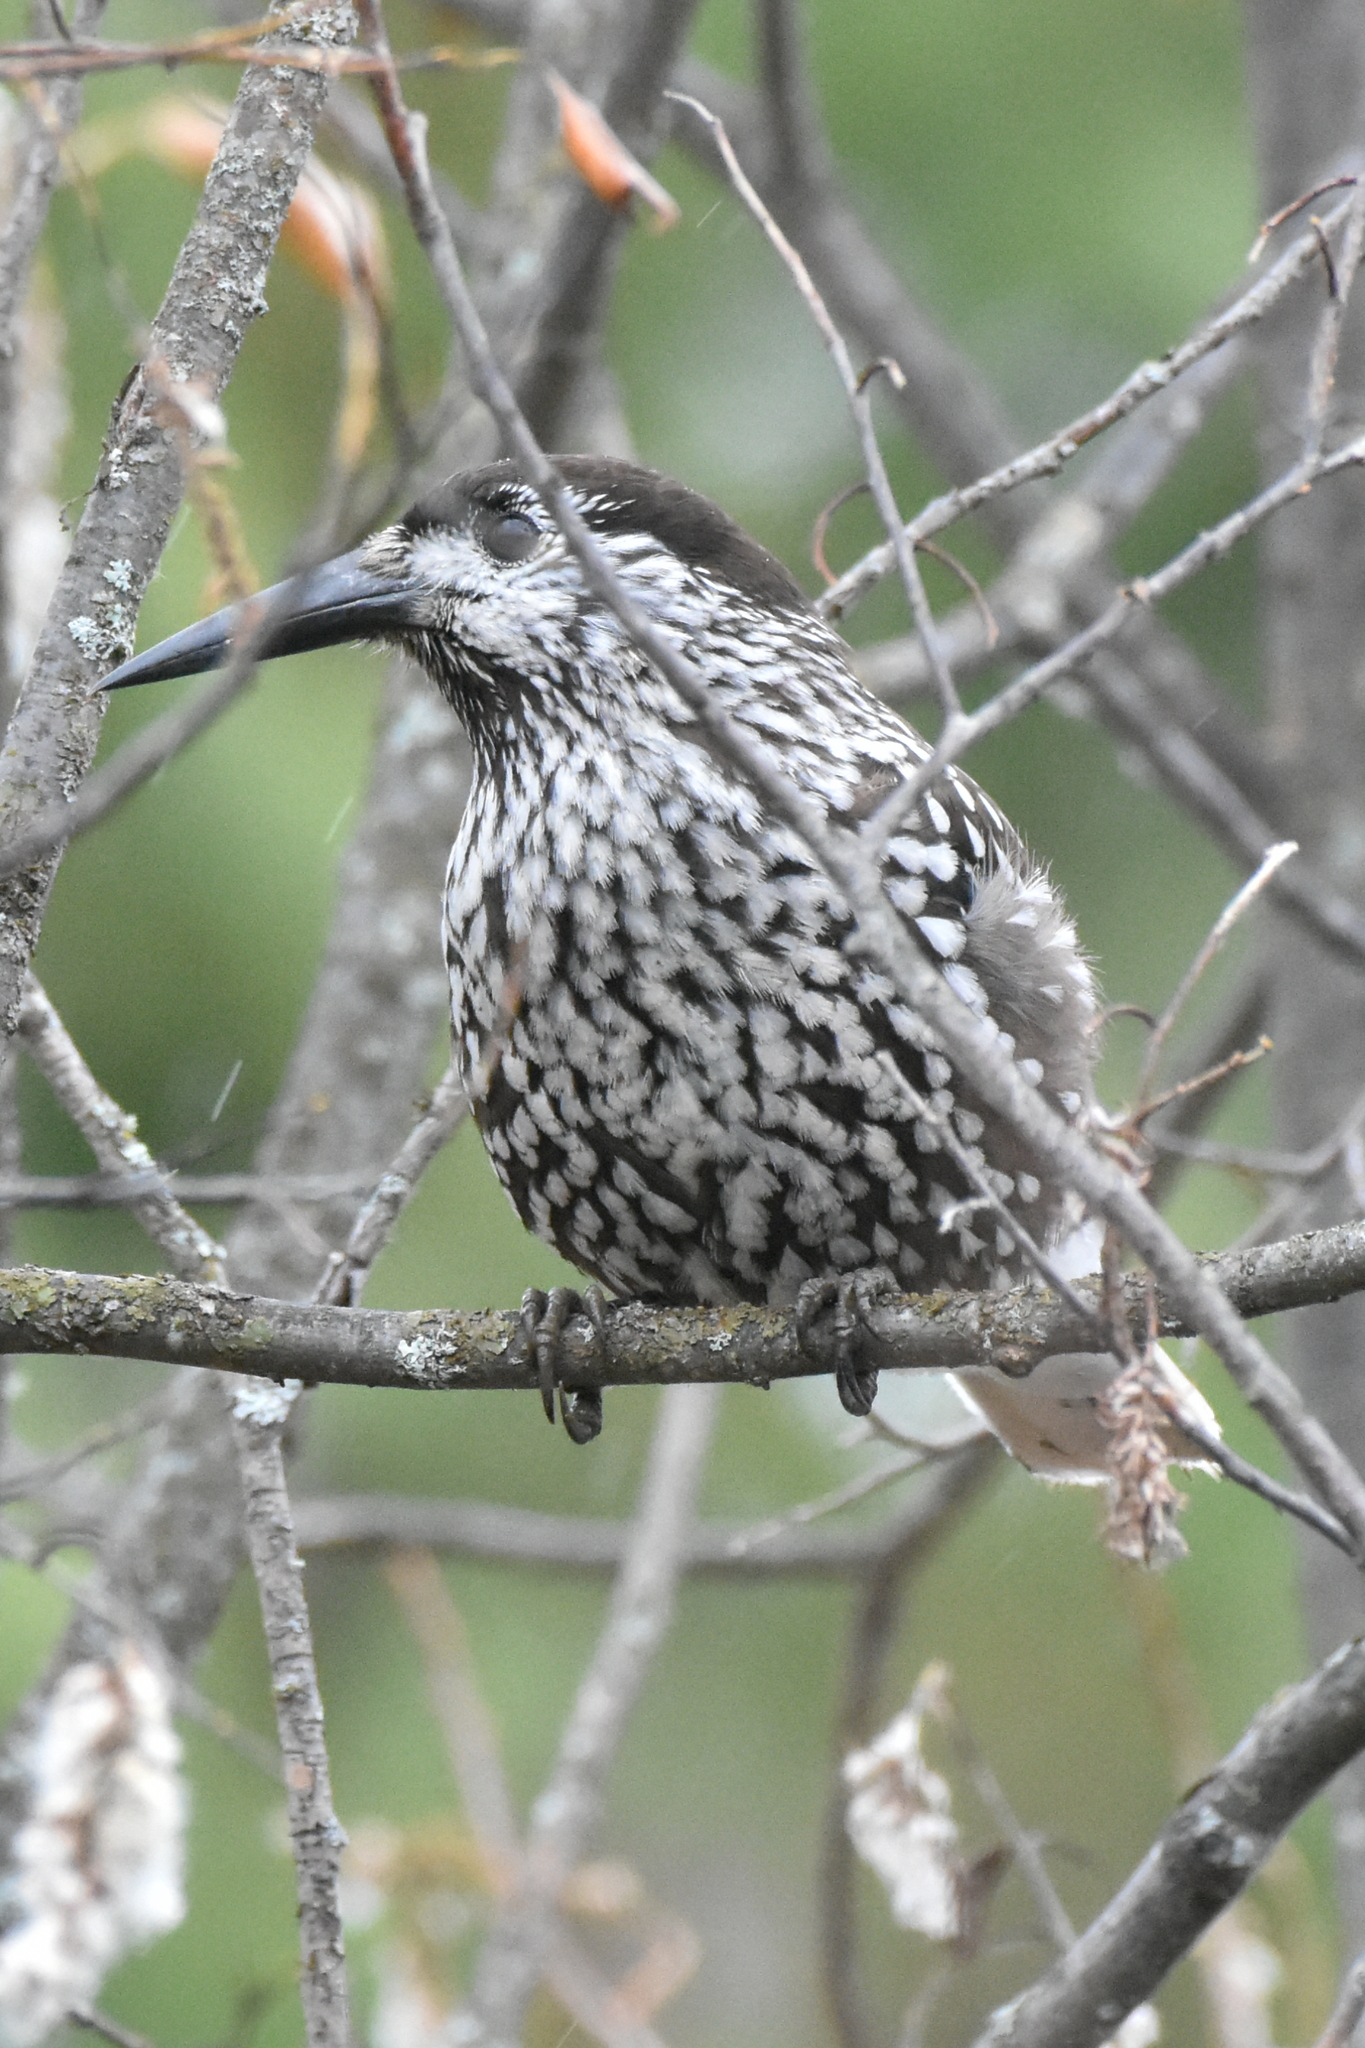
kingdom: Animalia
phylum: Chordata
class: Aves
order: Passeriformes
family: Corvidae
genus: Nucifraga
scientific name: Nucifraga caryocatactes
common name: Spotted nutcracker
